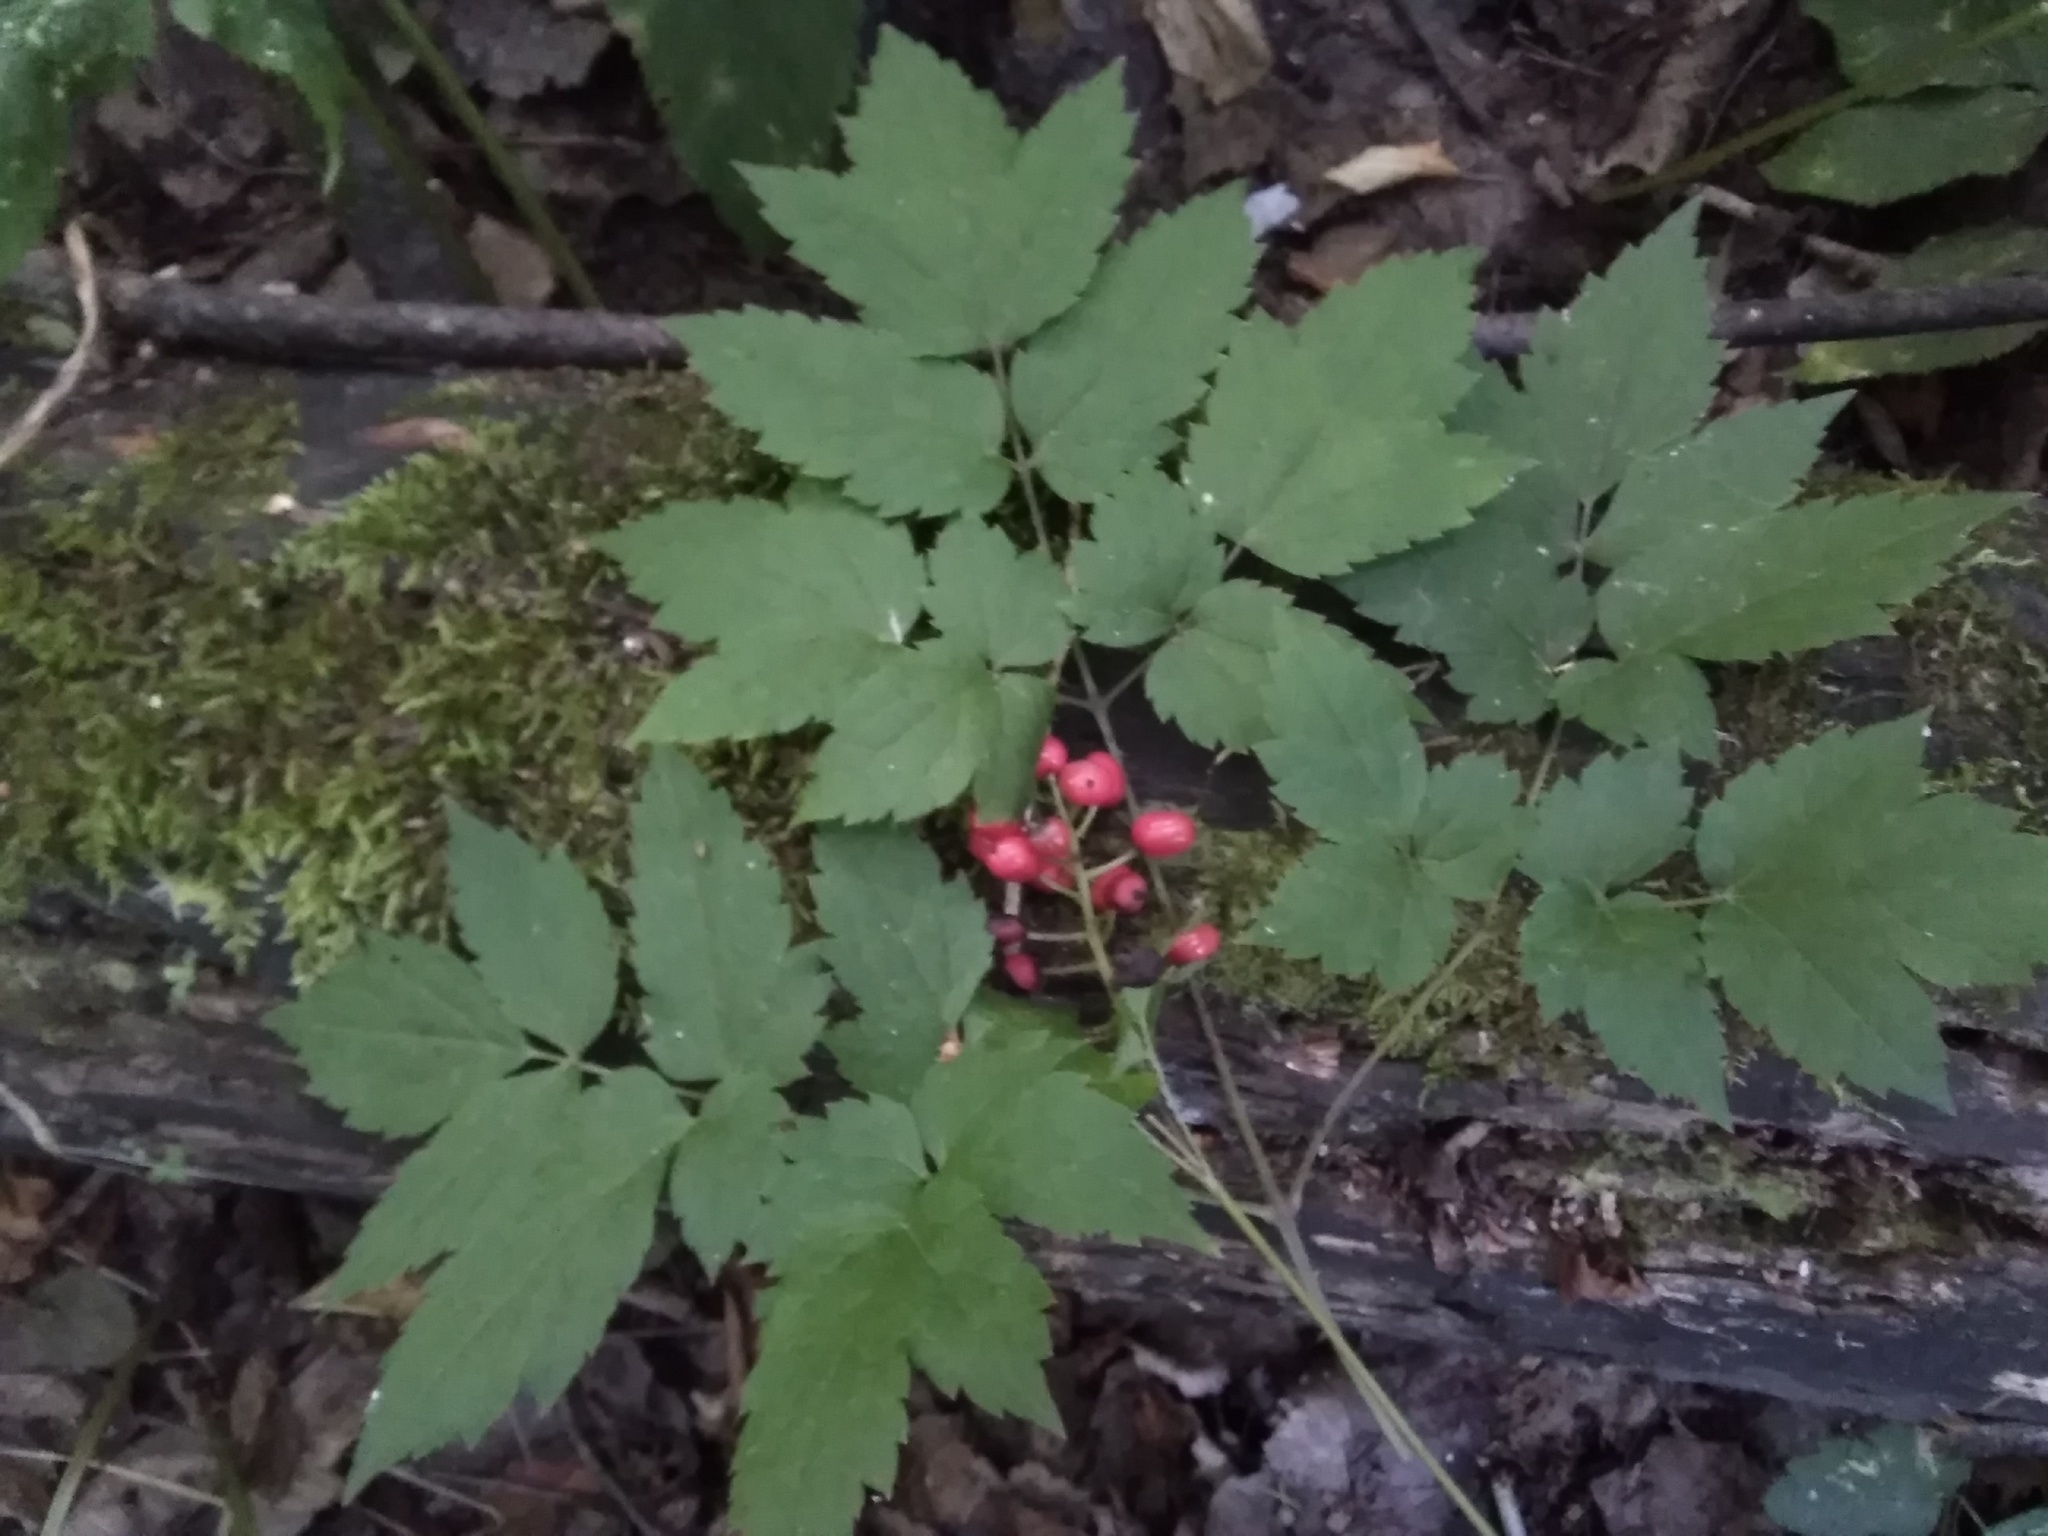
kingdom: Plantae
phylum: Tracheophyta
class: Magnoliopsida
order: Ranunculales
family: Ranunculaceae
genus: Actaea
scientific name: Actaea erythrocarpa
